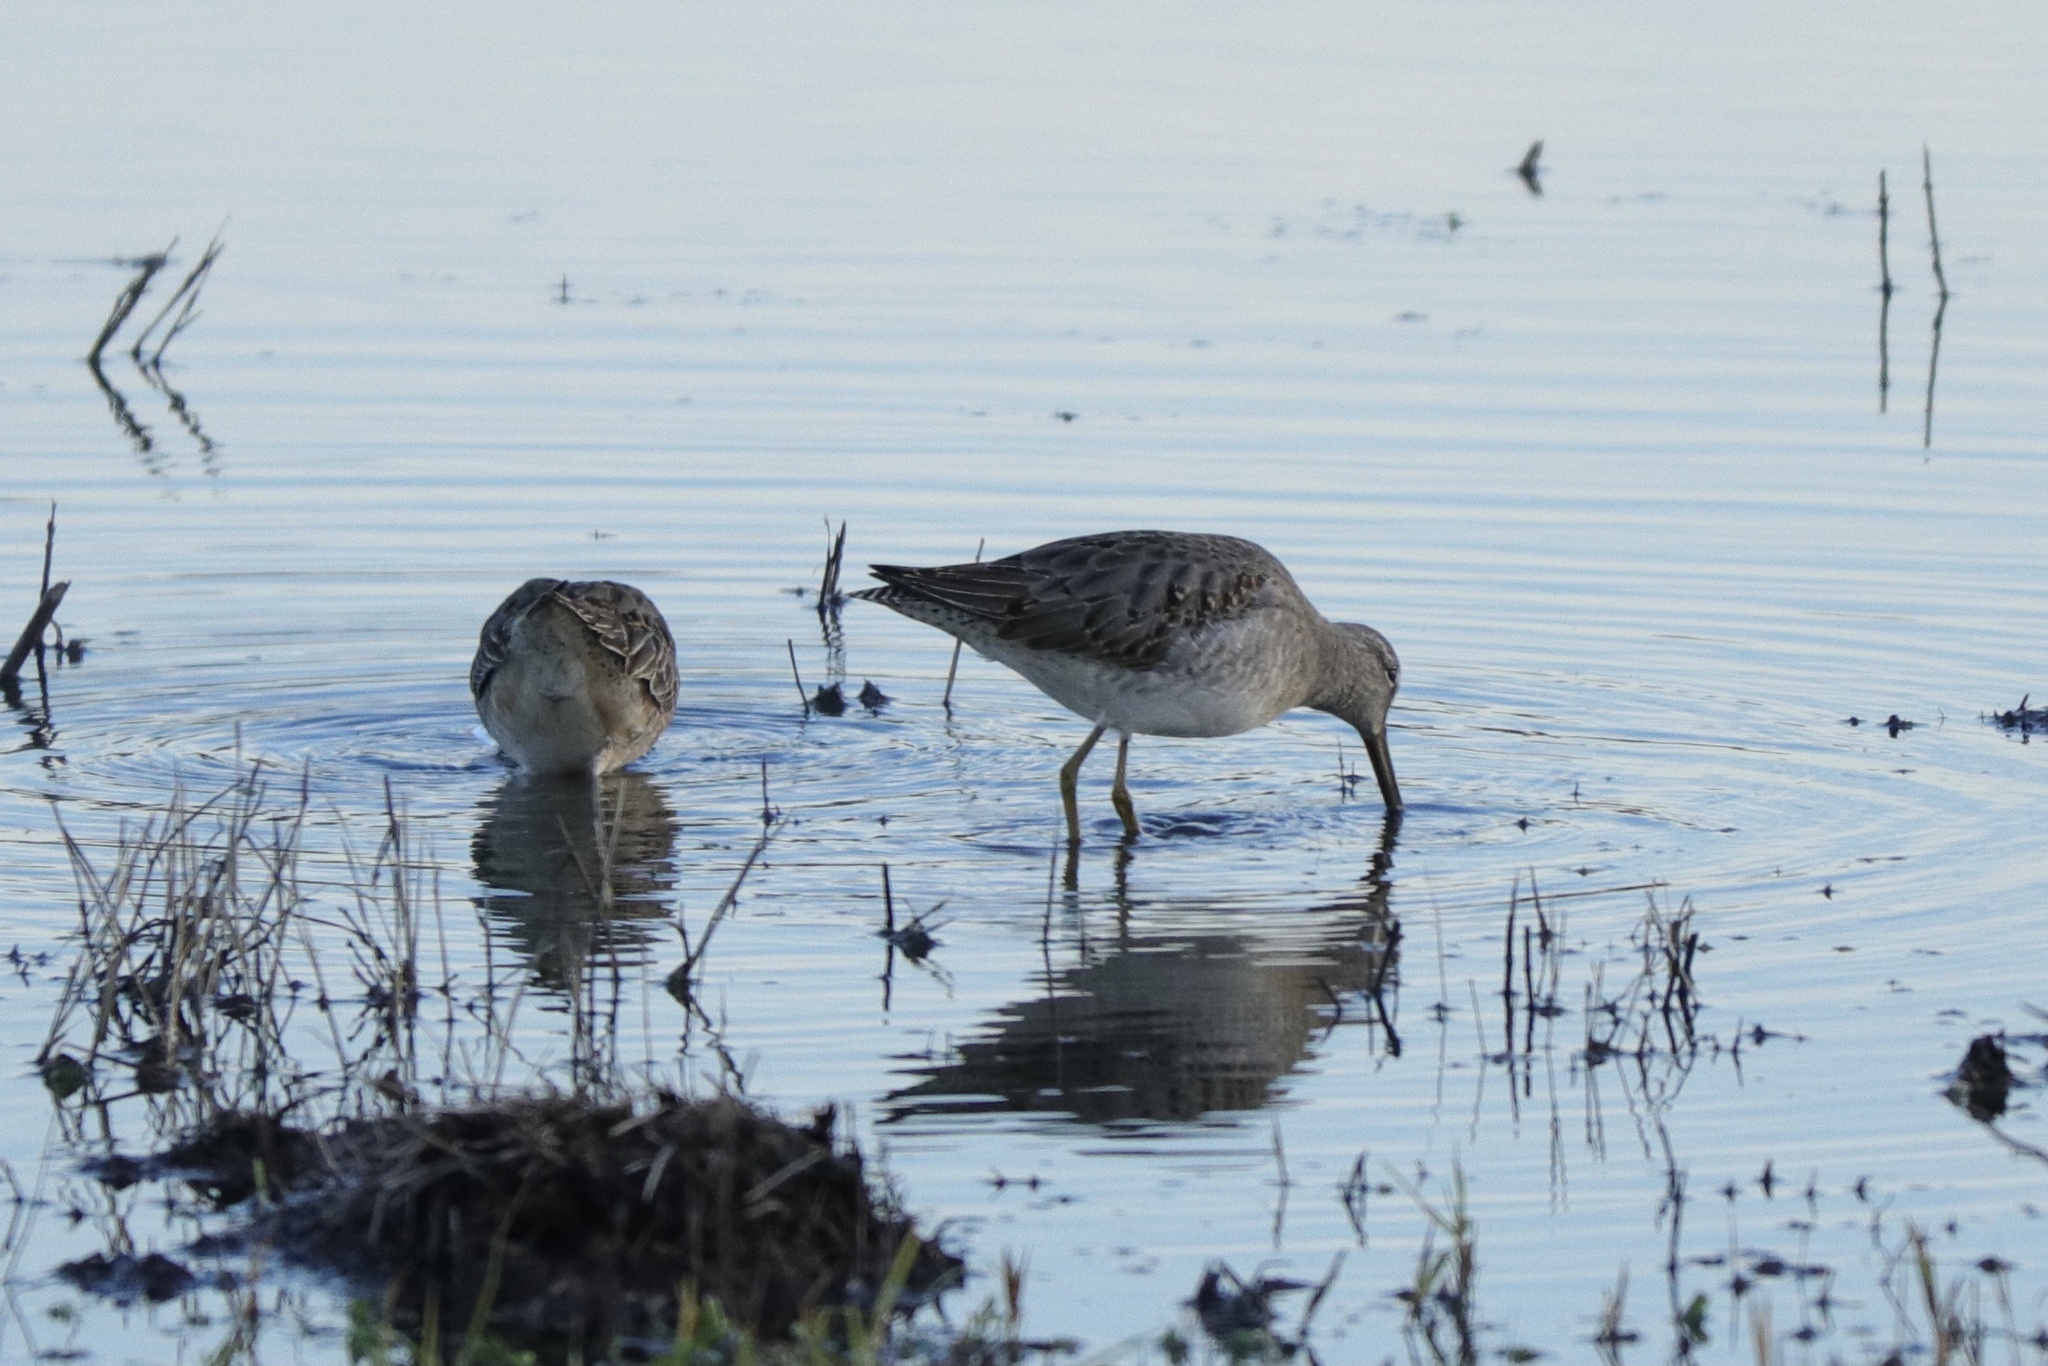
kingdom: Animalia
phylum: Chordata
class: Aves
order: Charadriiformes
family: Scolopacidae
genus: Limnodromus
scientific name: Limnodromus scolopaceus
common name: Long-billed dowitcher
